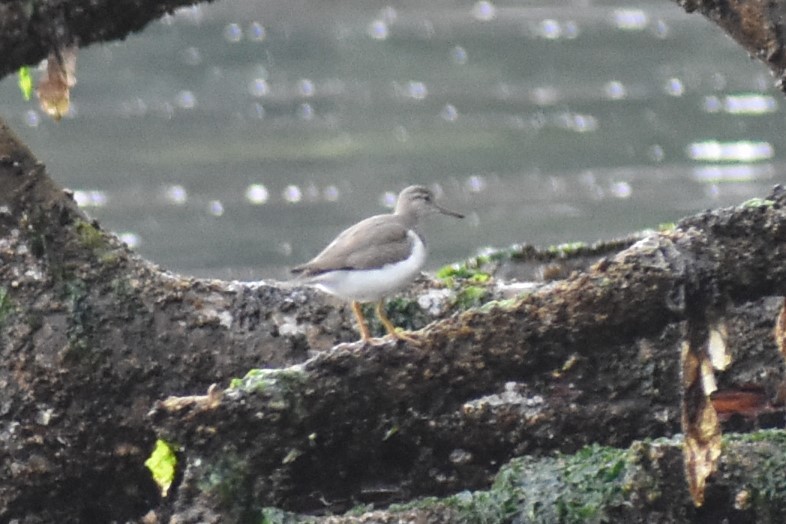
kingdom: Animalia
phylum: Chordata
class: Aves
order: Charadriiformes
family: Scolopacidae
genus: Actitis
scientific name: Actitis macularius
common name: Spotted sandpiper
